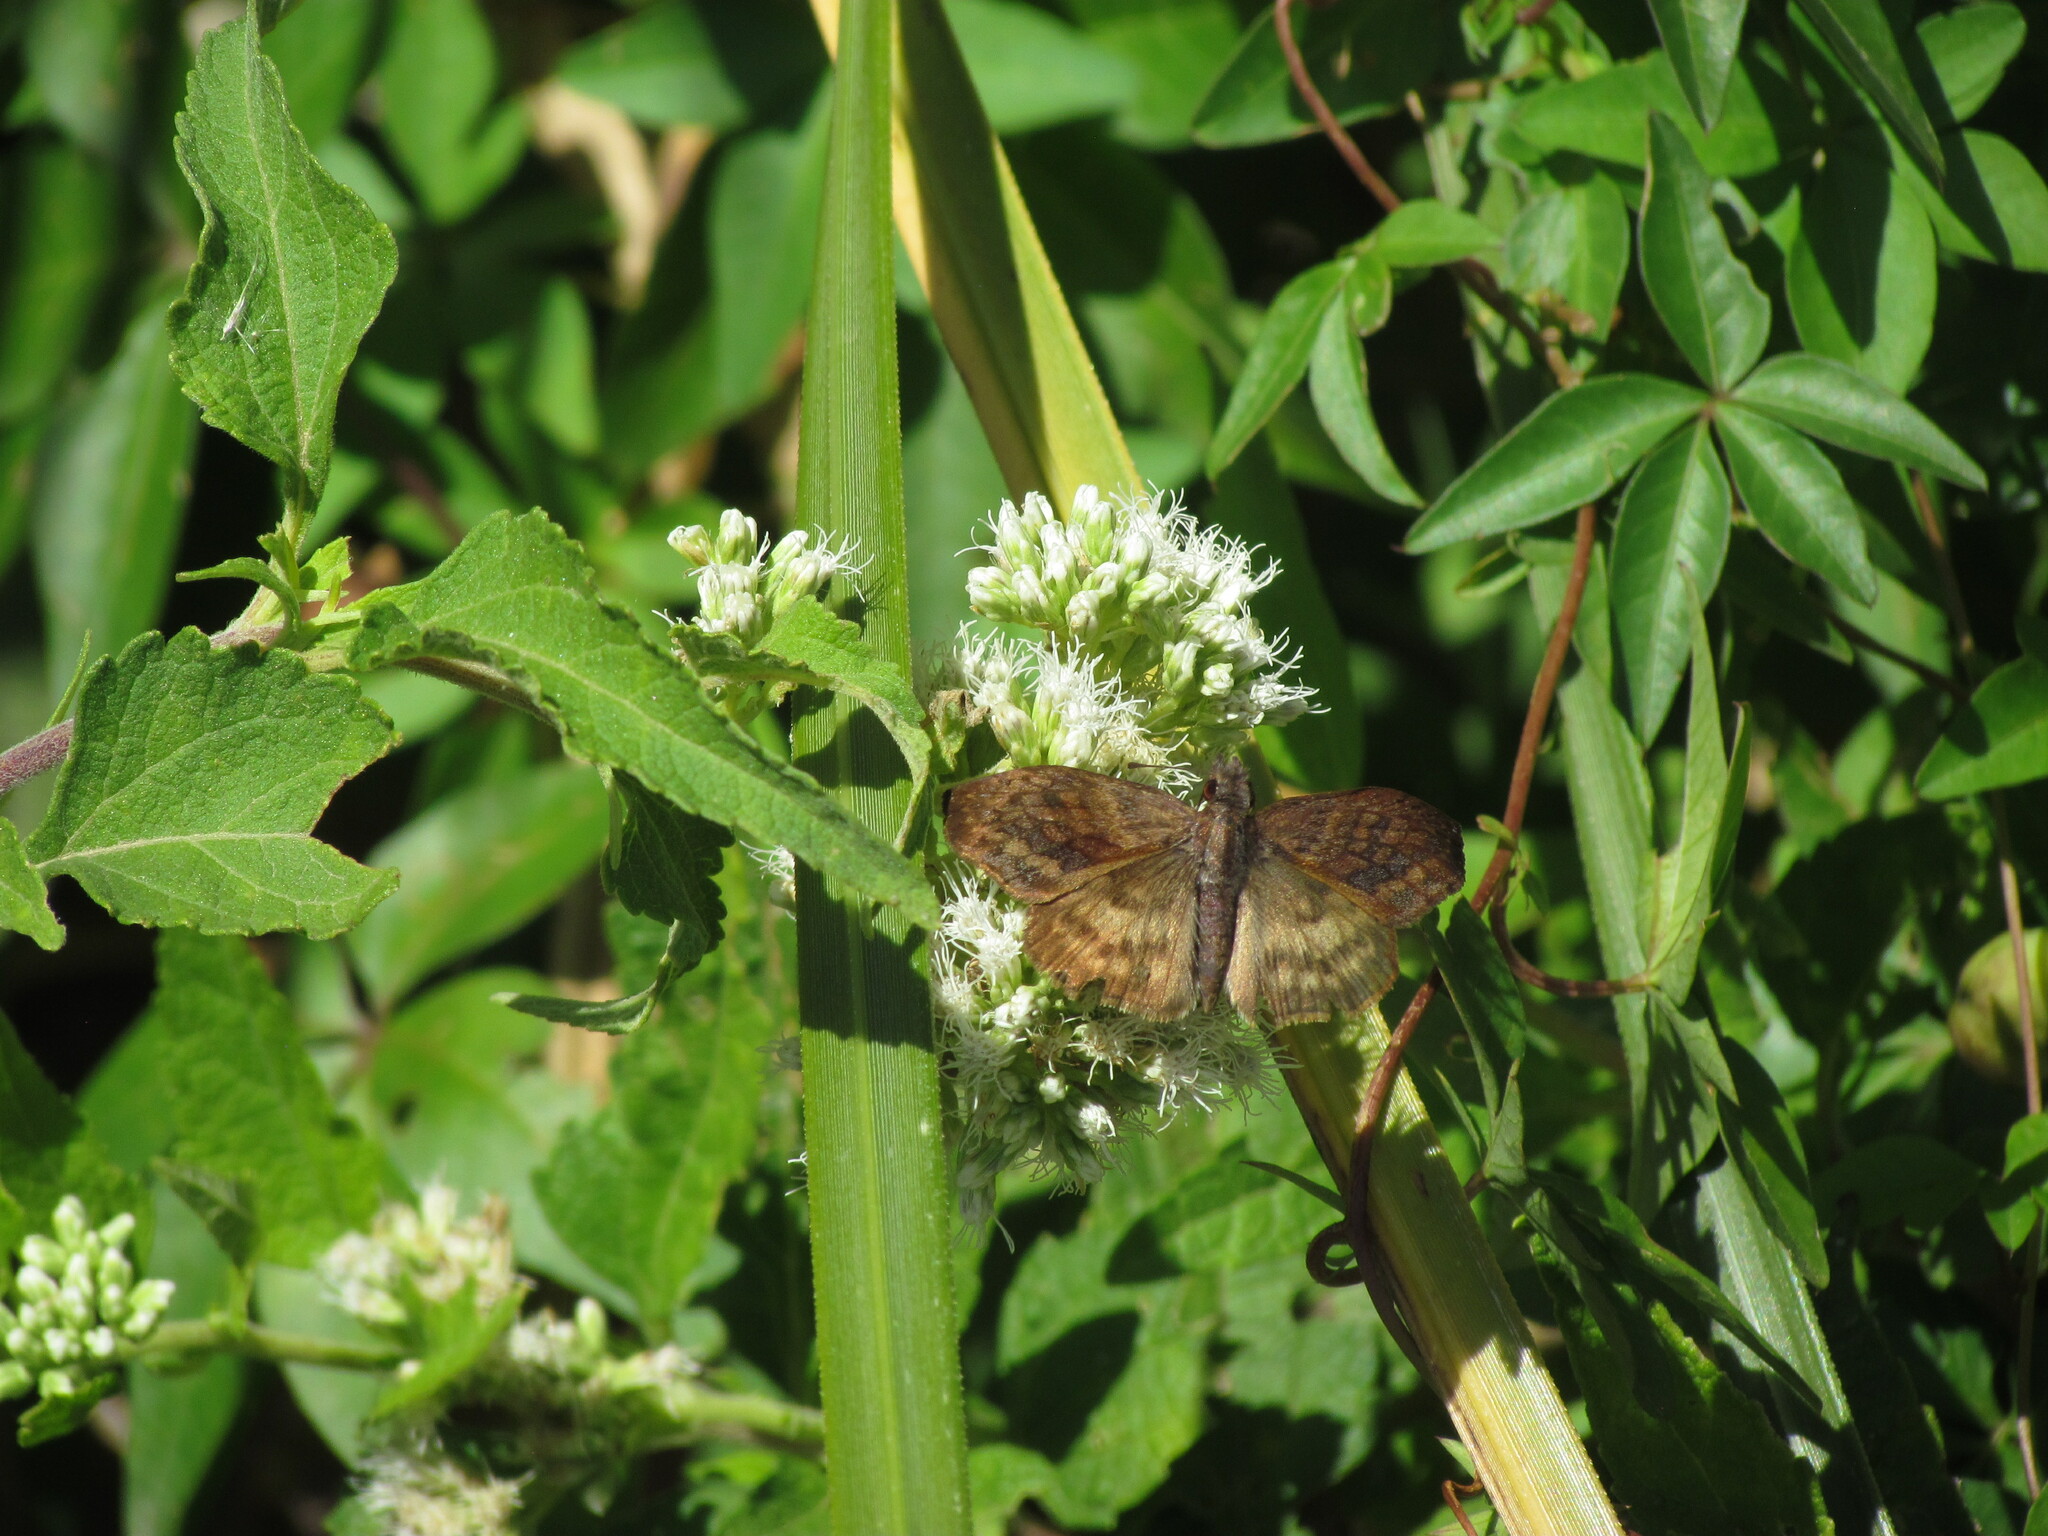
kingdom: Animalia
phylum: Arthropoda
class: Insecta
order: Lepidoptera
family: Hesperiidae
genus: Theagenes
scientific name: Theagenes dichrous
